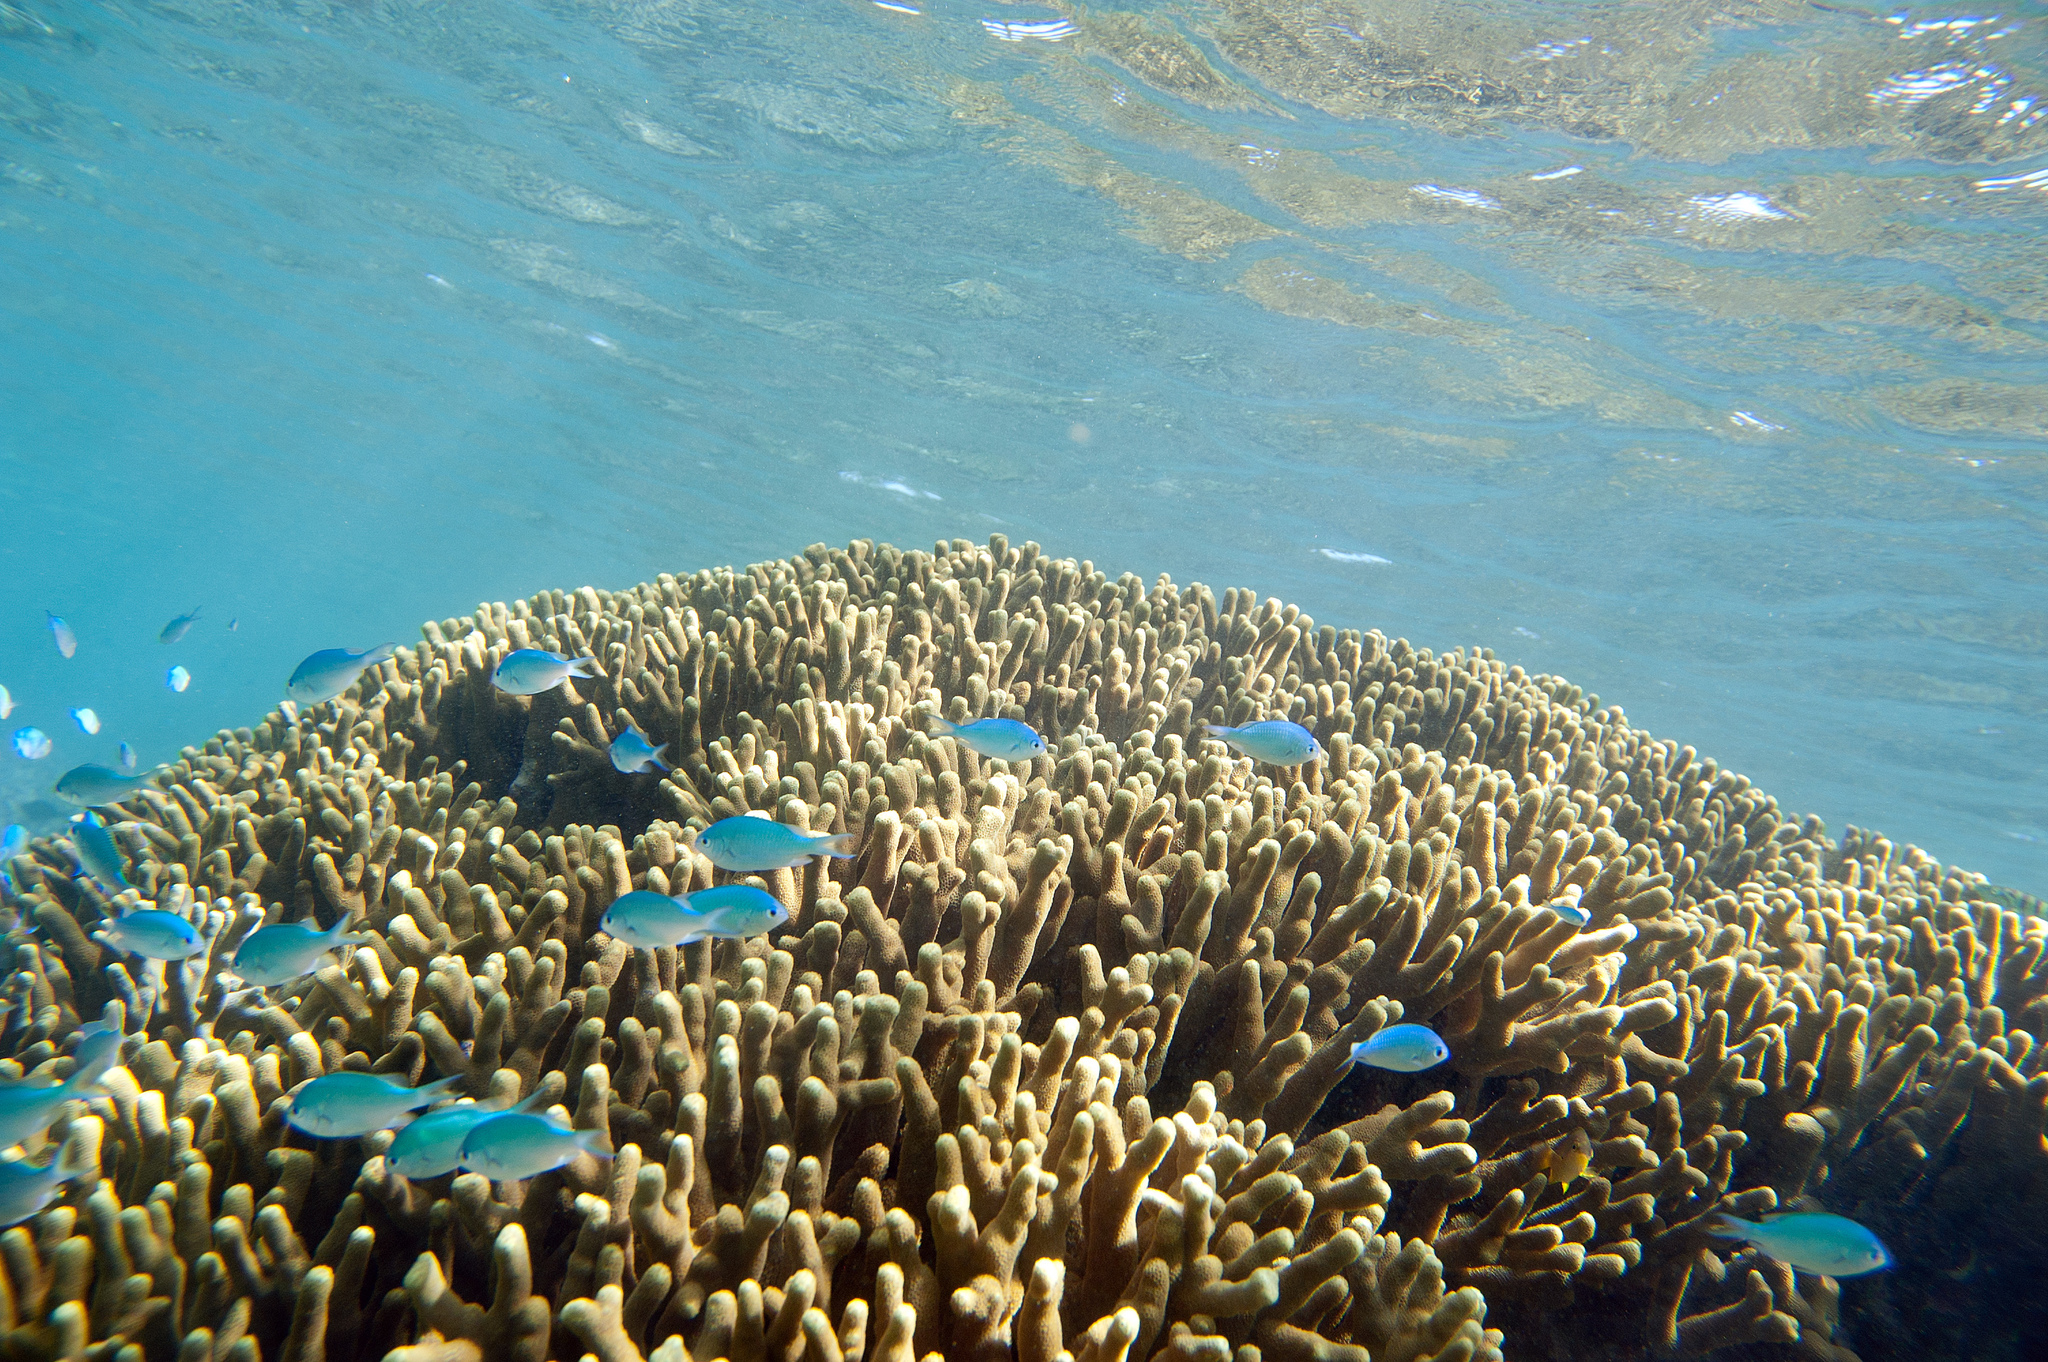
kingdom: Animalia
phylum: Chordata
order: Perciformes
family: Pomacentridae
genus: Chromis
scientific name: Chromis atripectoralis
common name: Black-axil chromis
